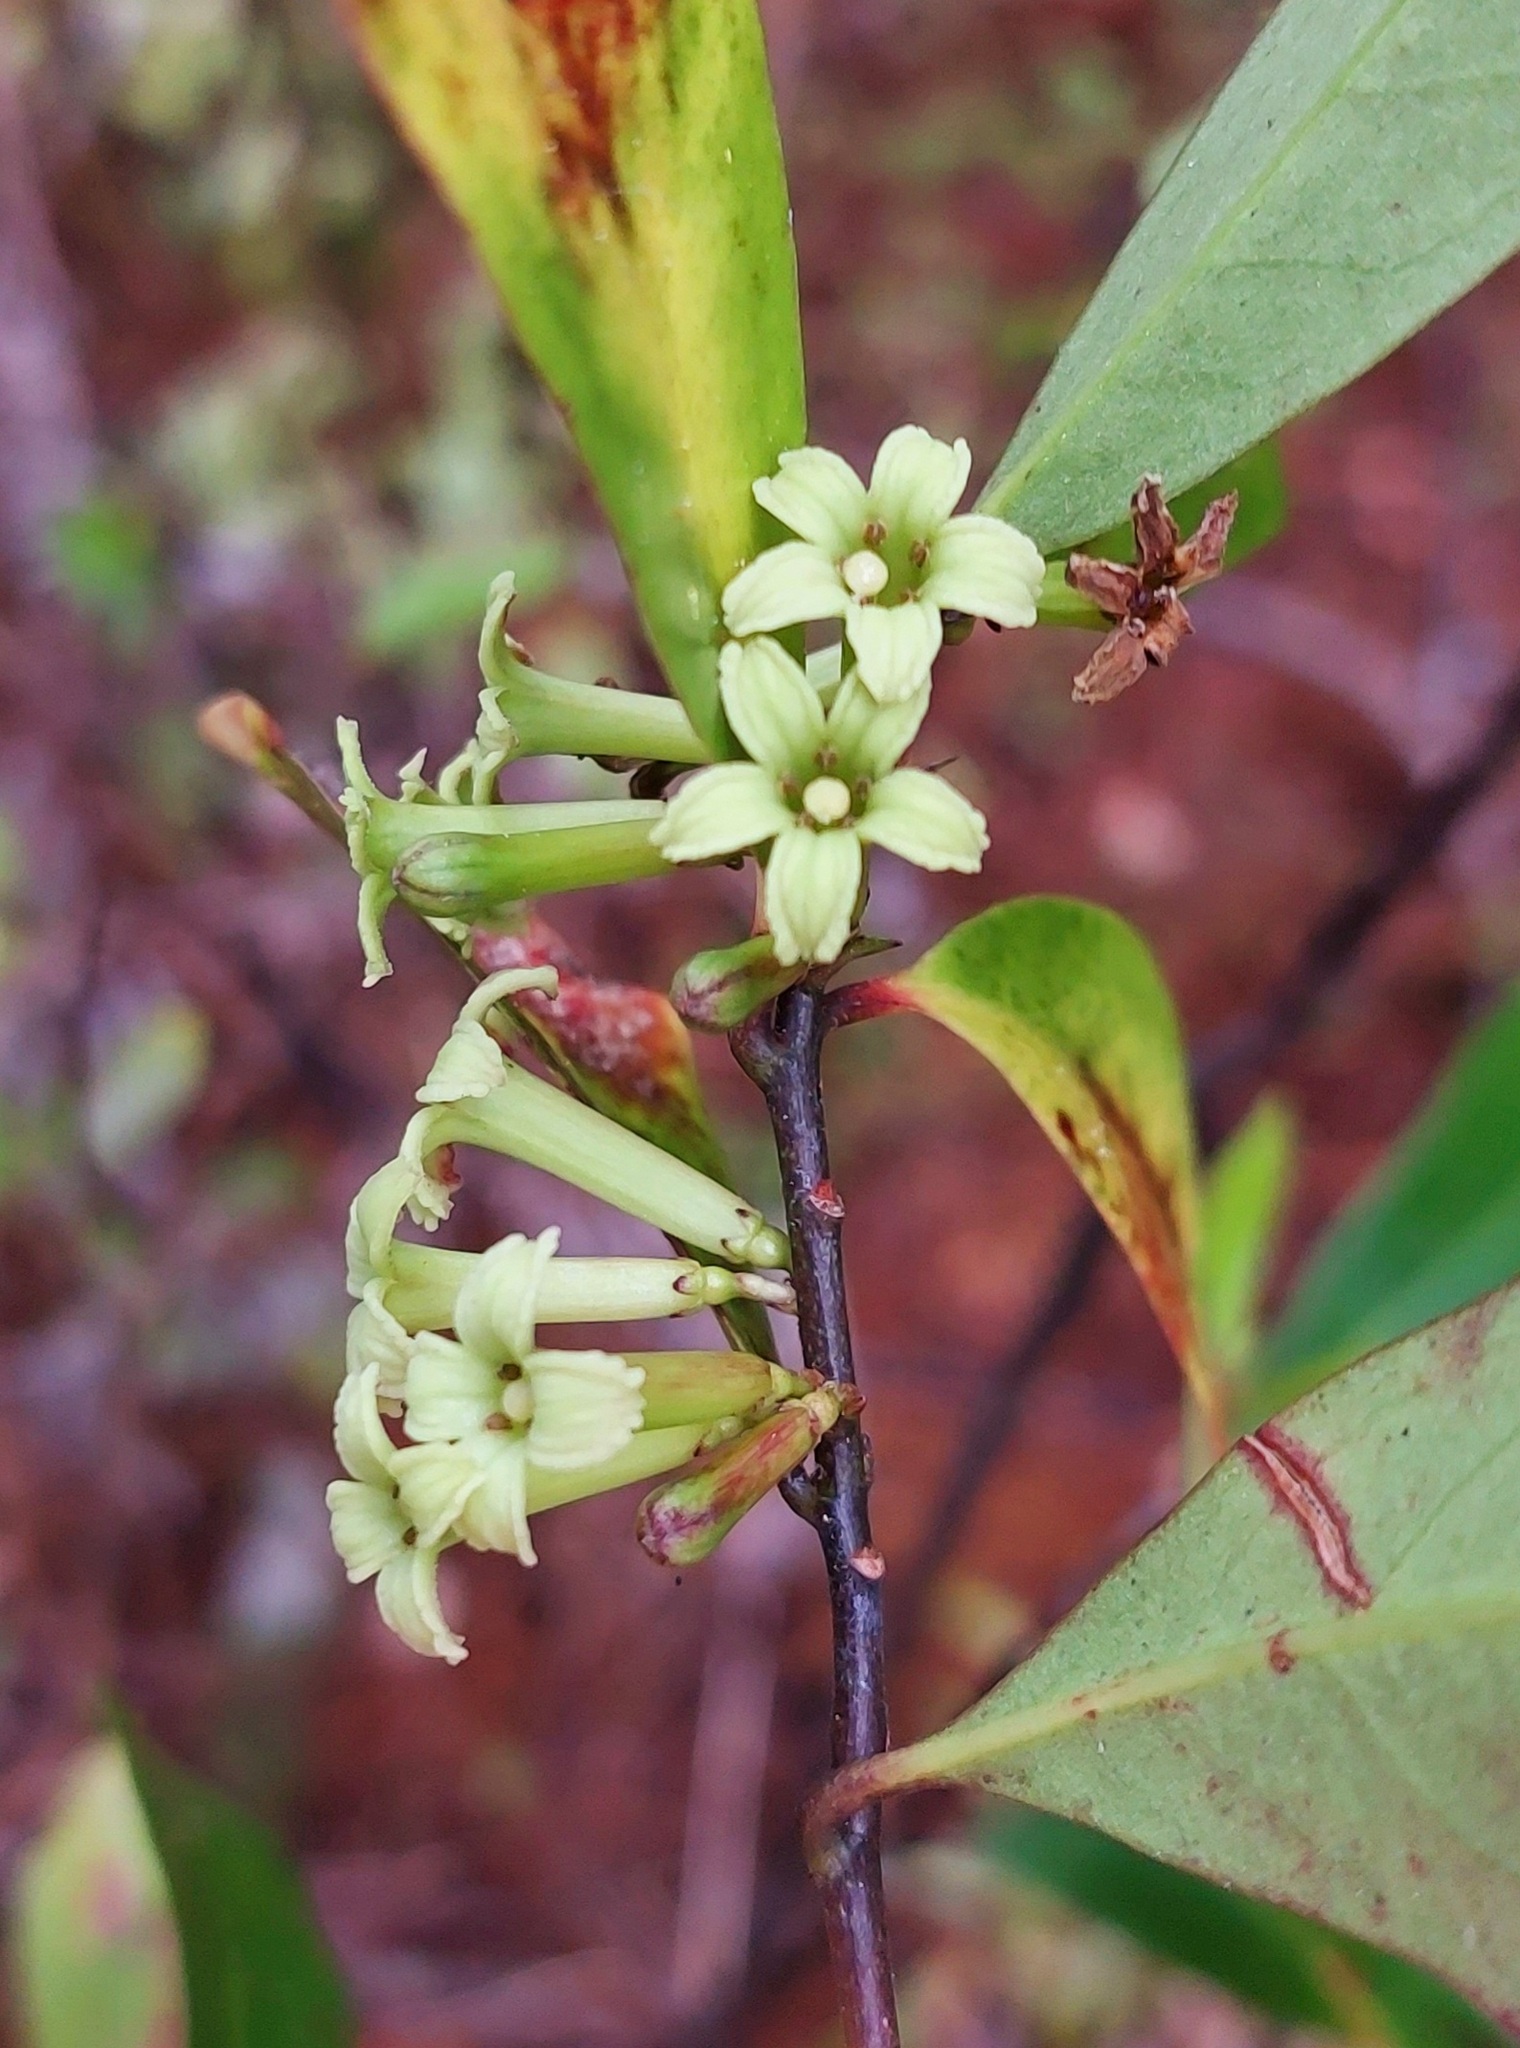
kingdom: Plantae
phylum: Tracheophyta
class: Magnoliopsida
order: Asterales
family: Alseuosmiaceae
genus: Alseuosmia
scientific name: Alseuosmia quercifolia
